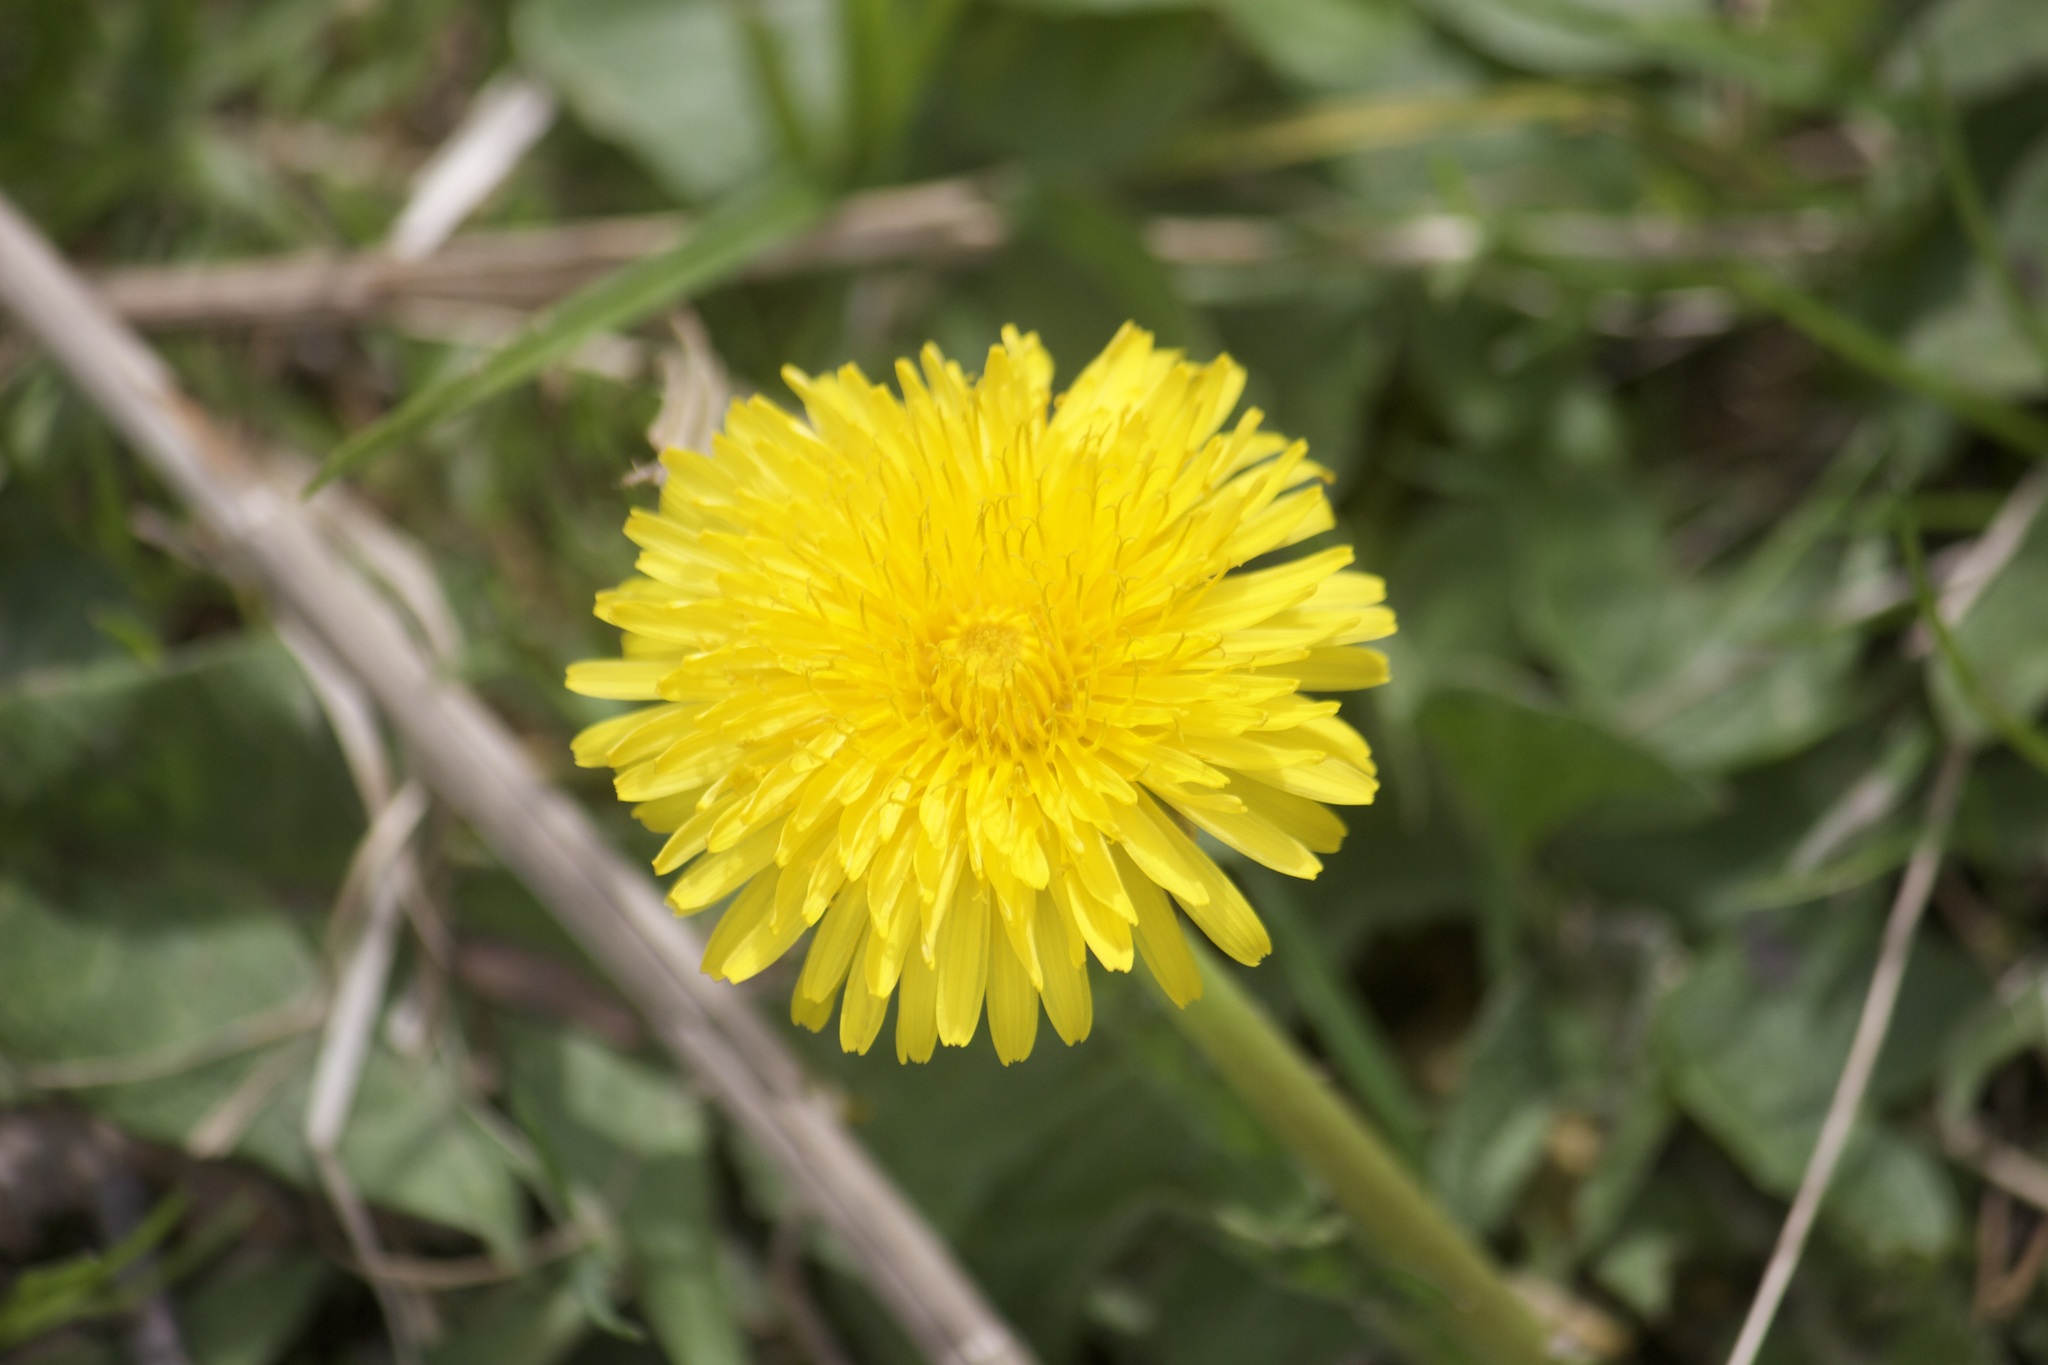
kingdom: Plantae
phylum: Tracheophyta
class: Magnoliopsida
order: Asterales
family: Asteraceae
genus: Taraxacum
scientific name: Taraxacum officinale
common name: Common dandelion
